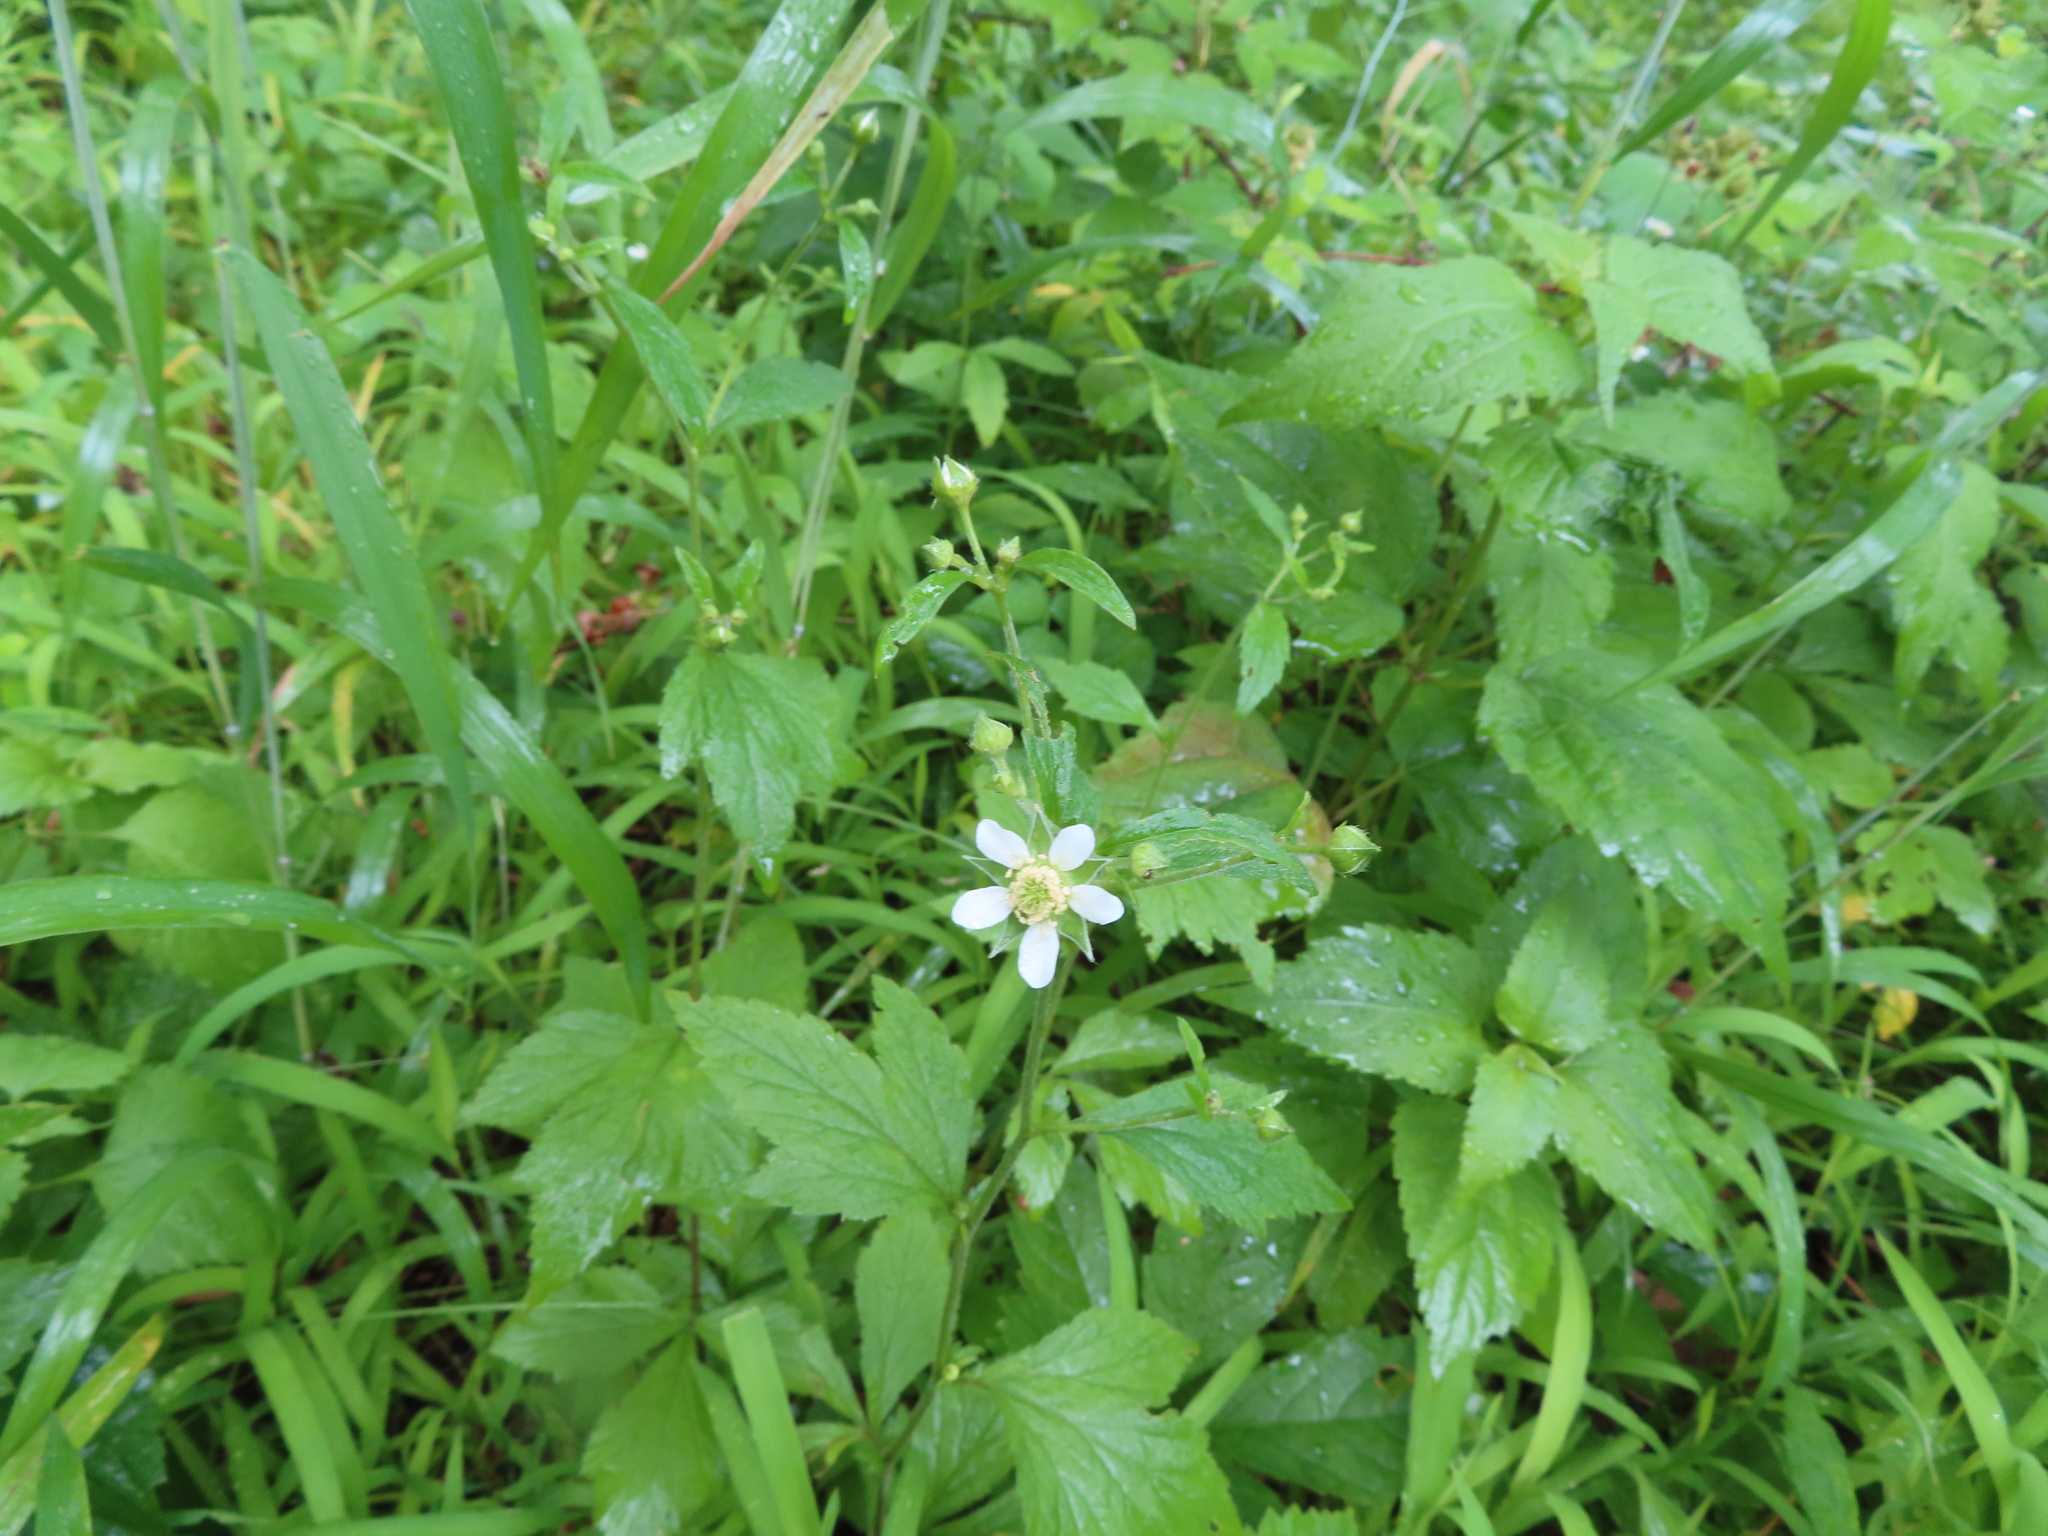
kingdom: Plantae
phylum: Tracheophyta
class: Magnoliopsida
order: Rosales
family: Rosaceae
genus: Geum
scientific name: Geum canadense
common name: White avens
